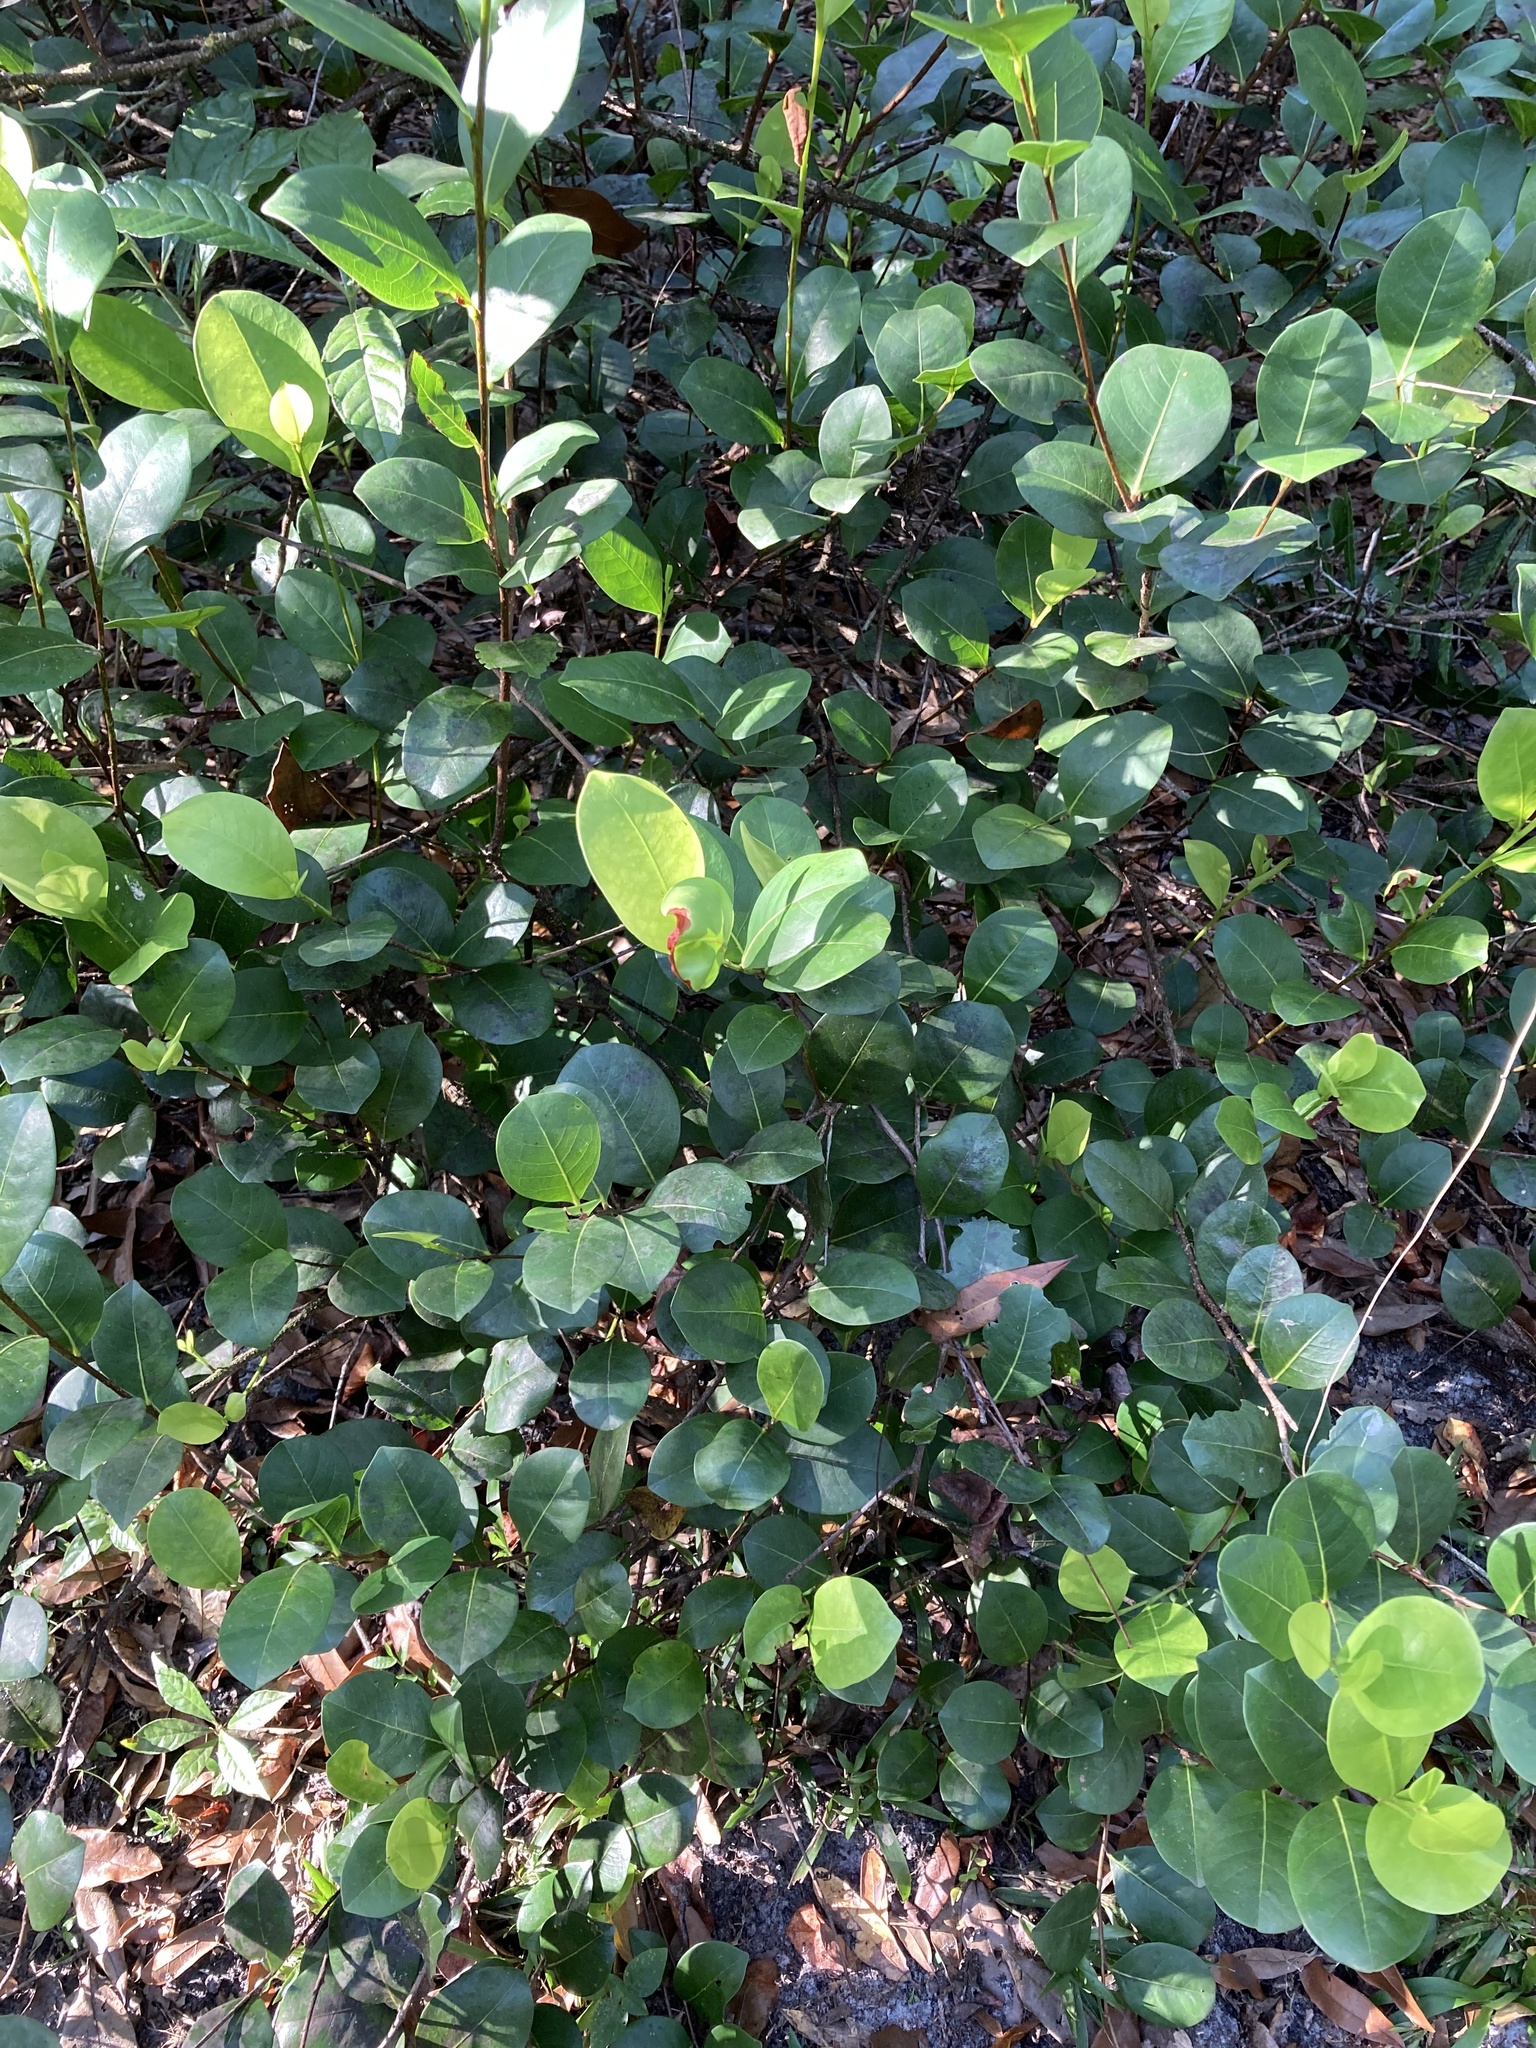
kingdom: Plantae
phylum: Tracheophyta
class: Magnoliopsida
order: Malpighiales
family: Chrysobalanaceae
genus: Chrysobalanus
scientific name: Chrysobalanus icaco
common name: Coco plum
